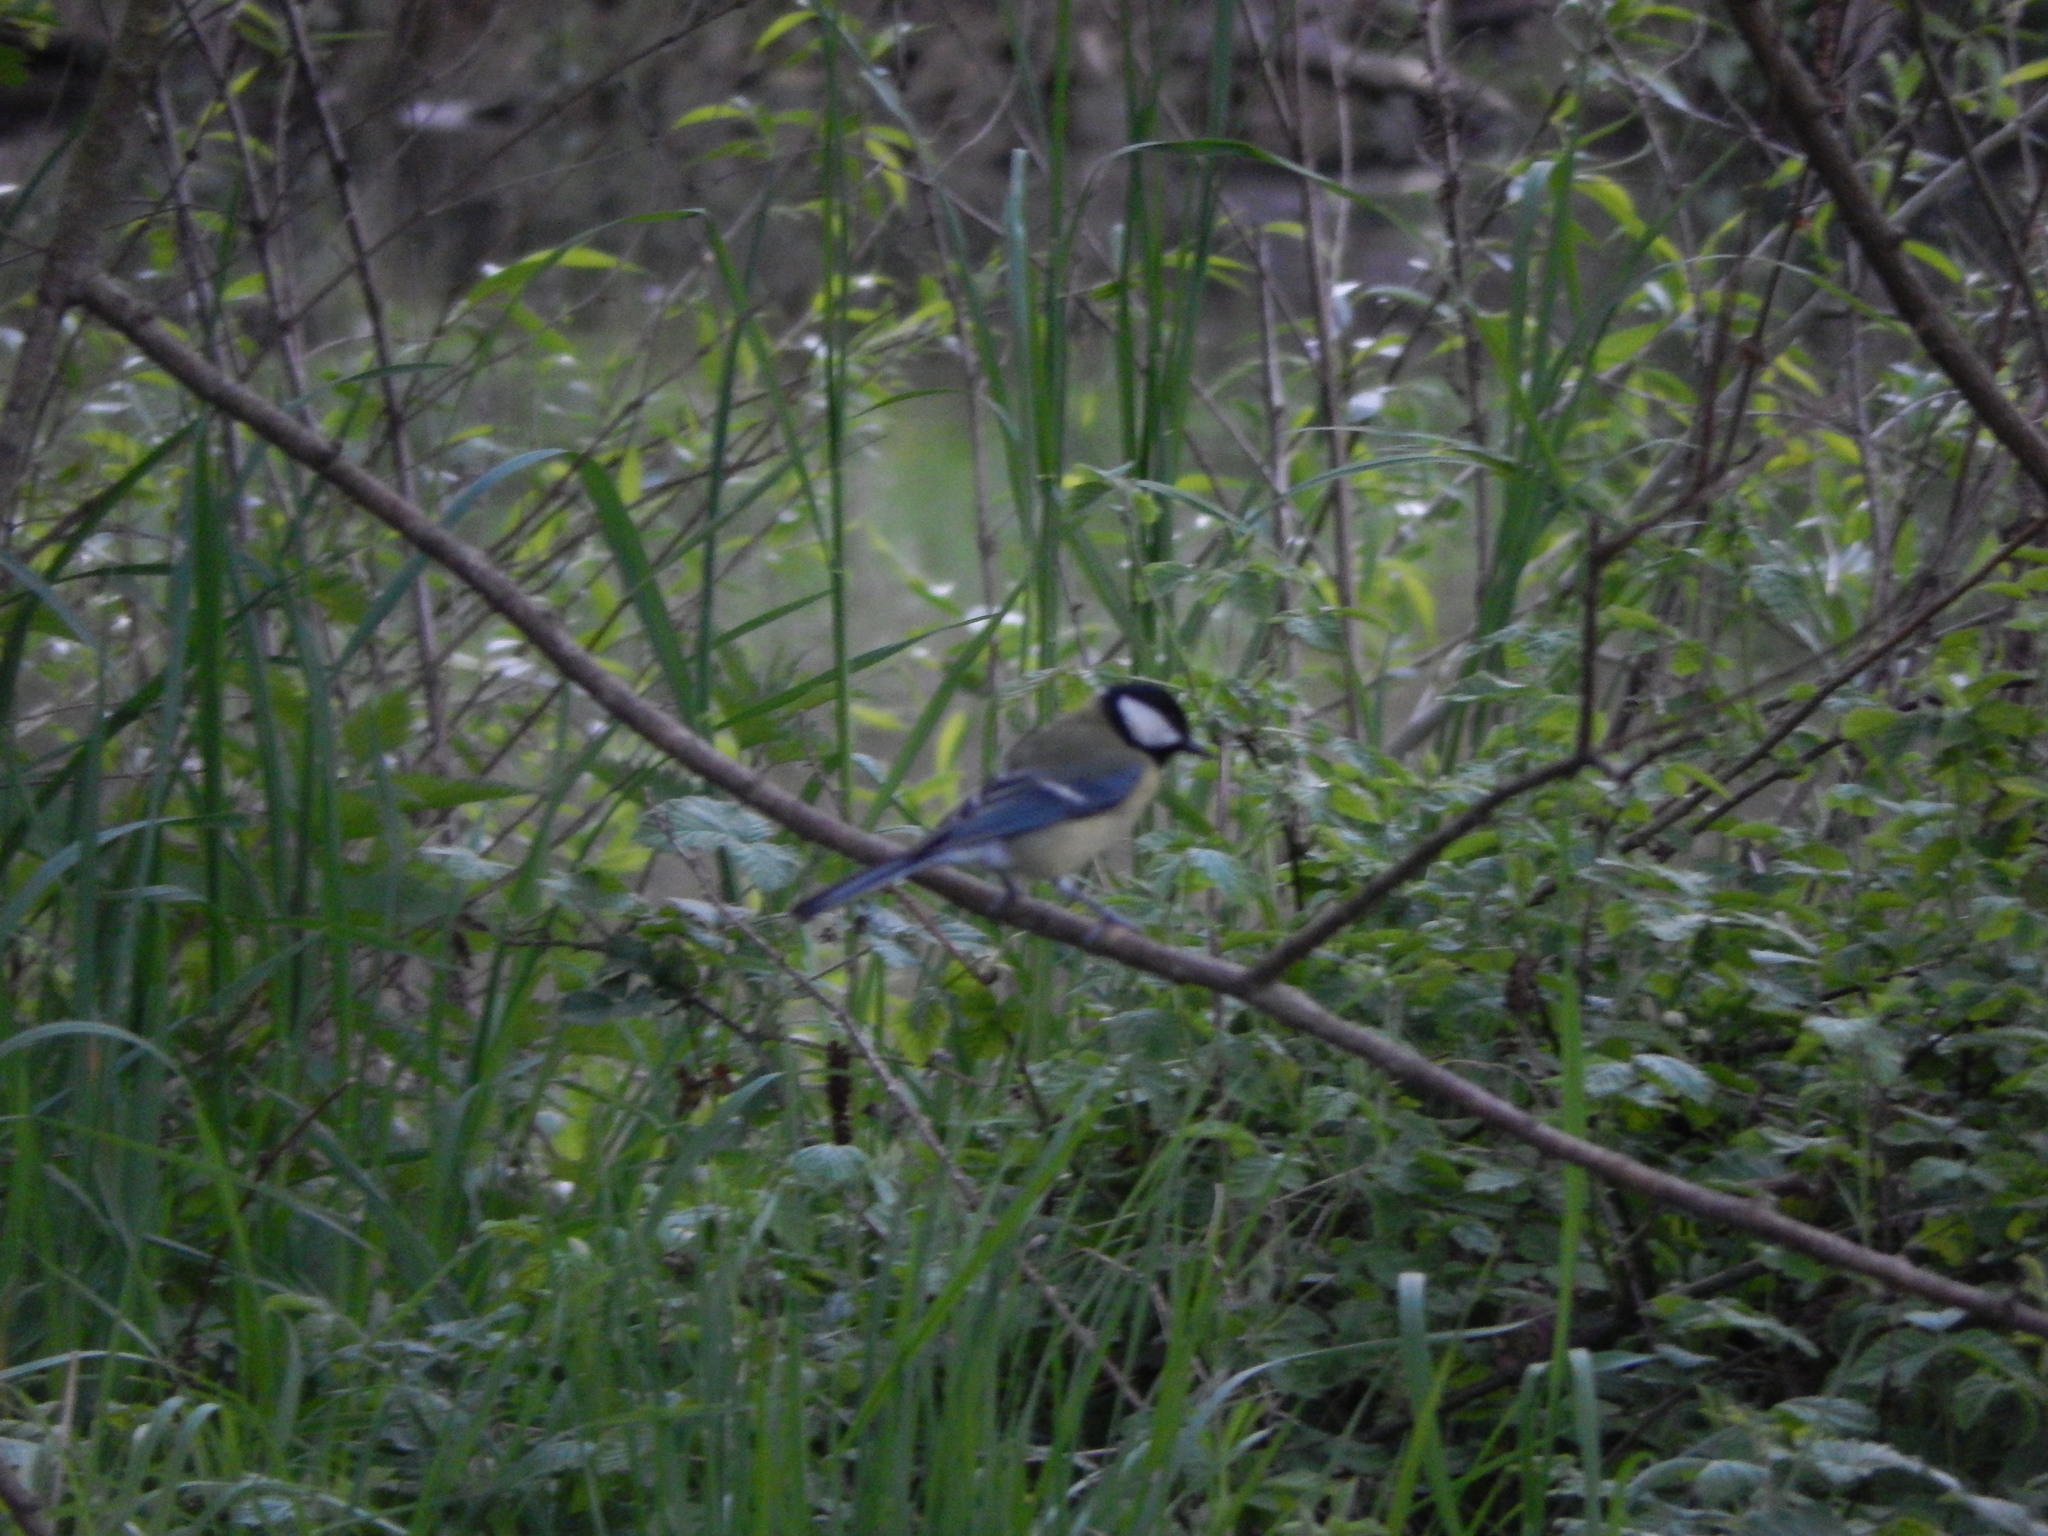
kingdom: Animalia
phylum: Chordata
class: Aves
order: Passeriformes
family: Paridae
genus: Parus
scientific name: Parus major
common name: Great tit
